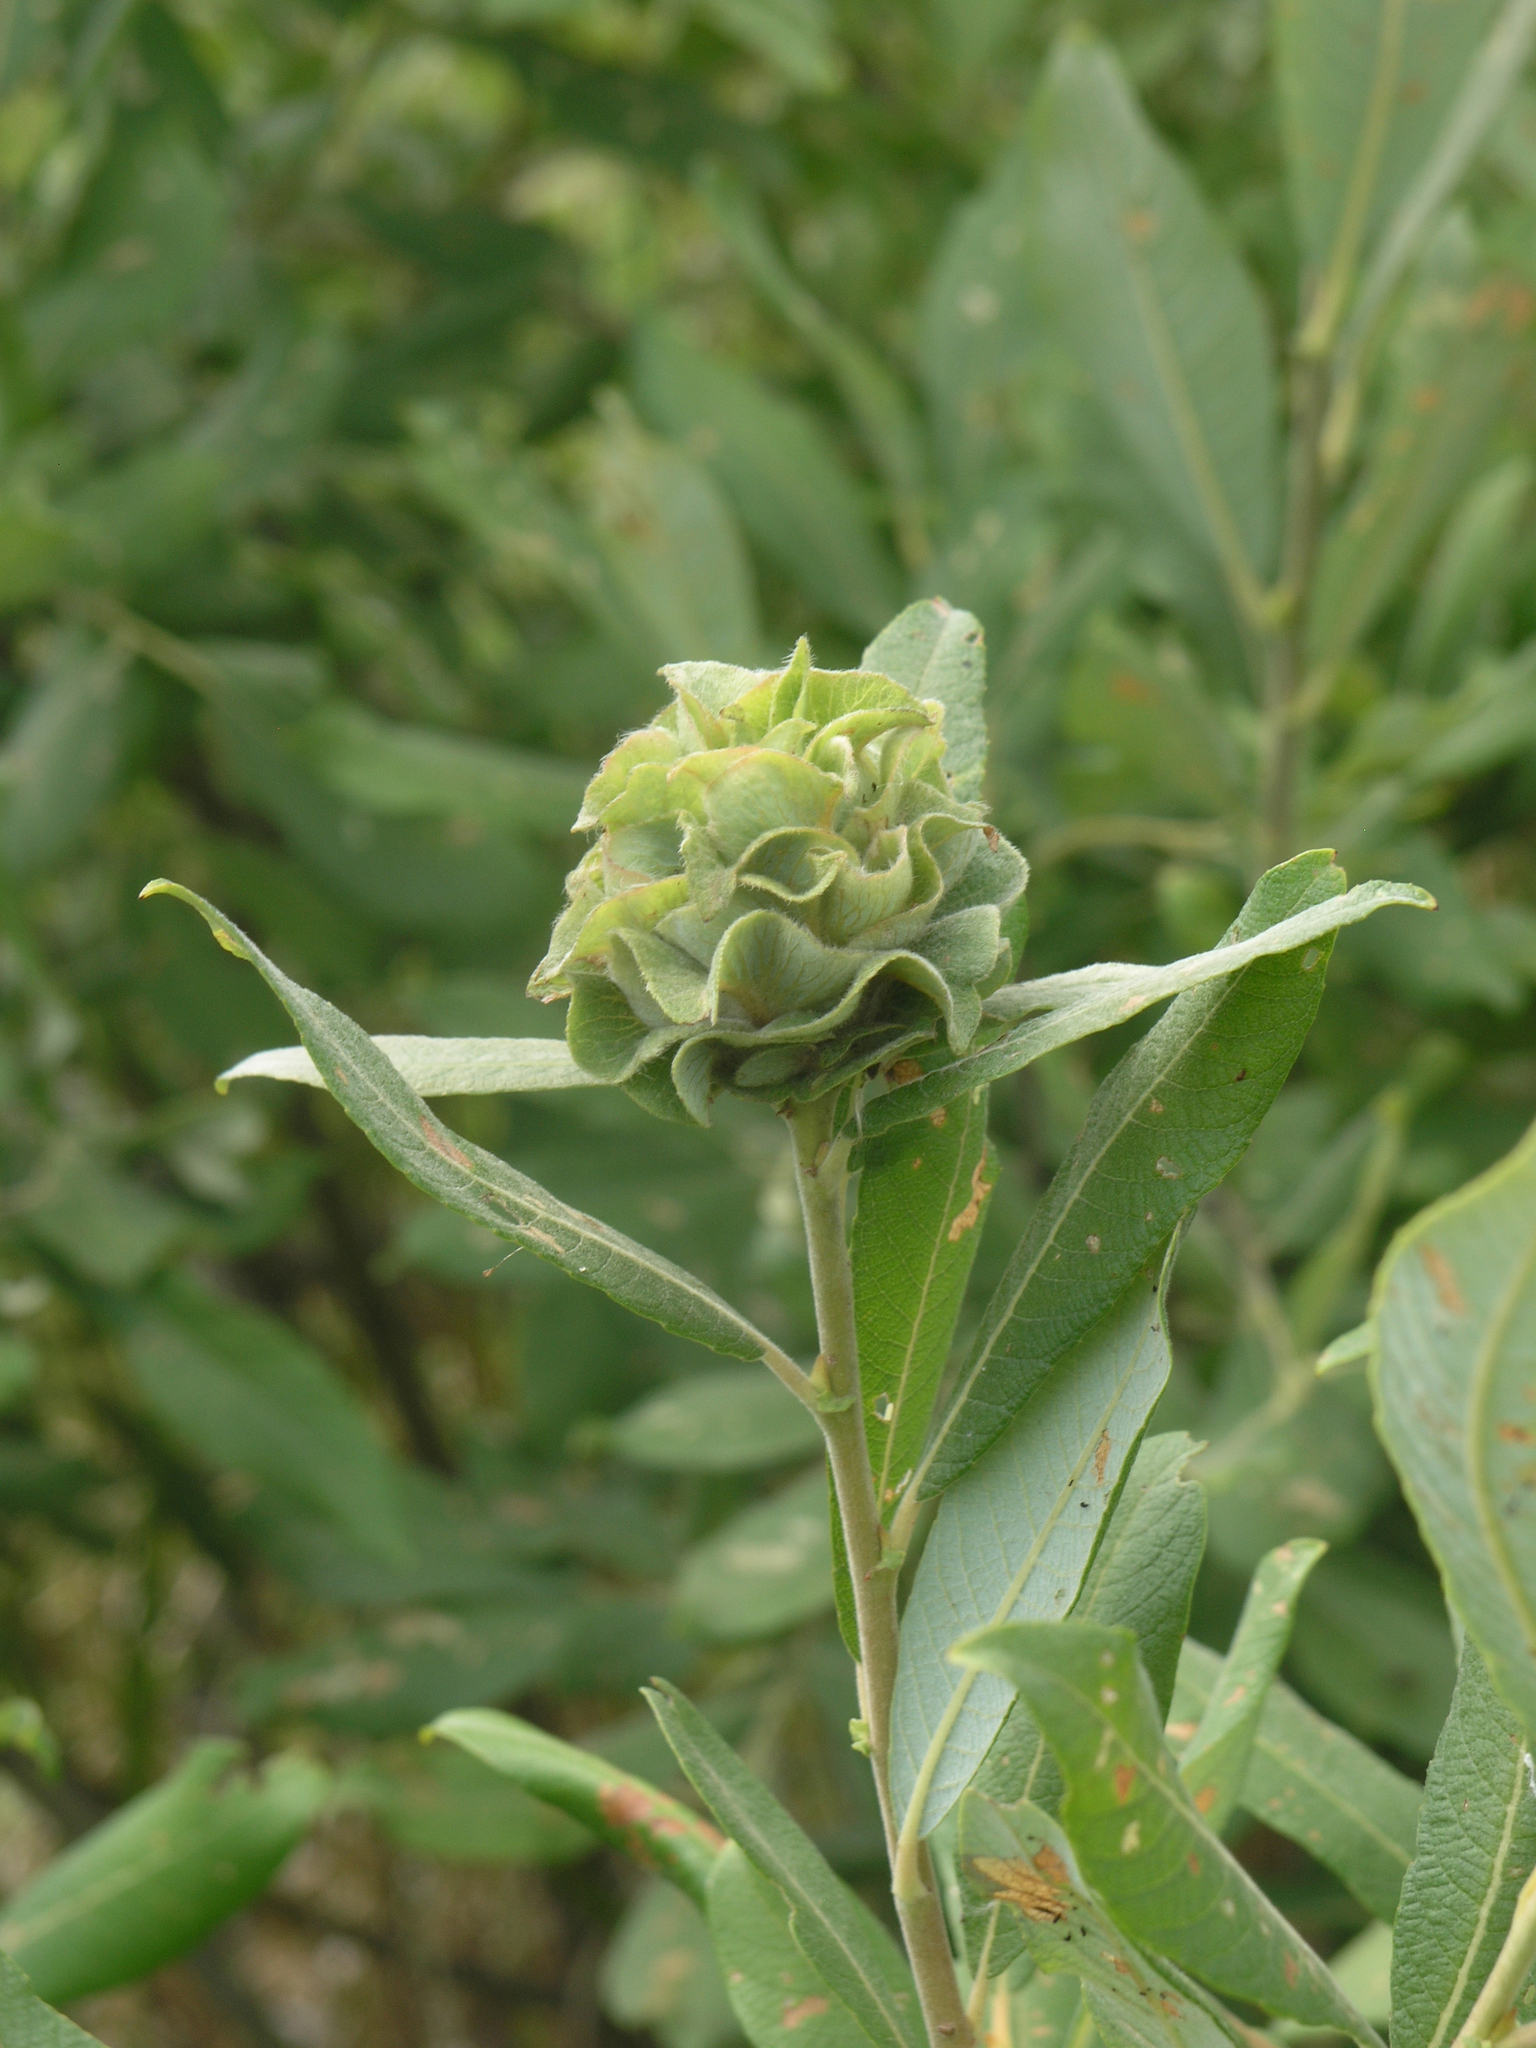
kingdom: Plantae
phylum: Tracheophyta
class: Magnoliopsida
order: Malpighiales
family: Salicaceae
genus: Salix
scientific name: Salix cinerea
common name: Common sallow
